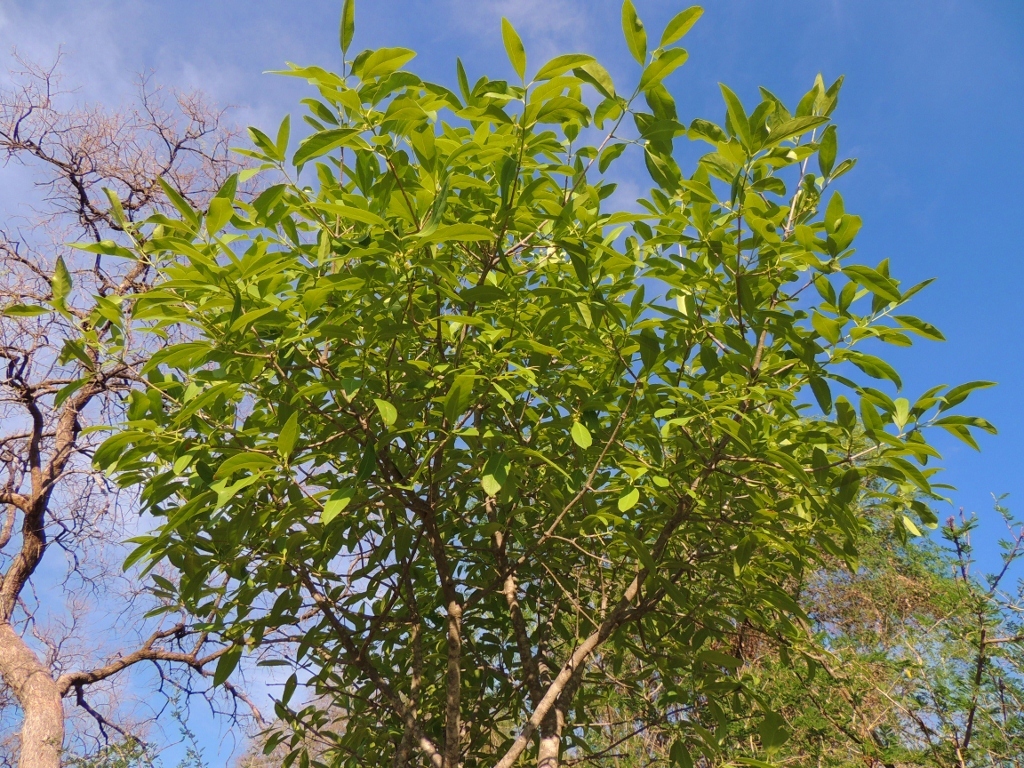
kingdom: Plantae
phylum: Tracheophyta
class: Magnoliopsida
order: Celastrales
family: Celastraceae
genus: Elaeodendron
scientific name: Elaeodendron schlechterianum
